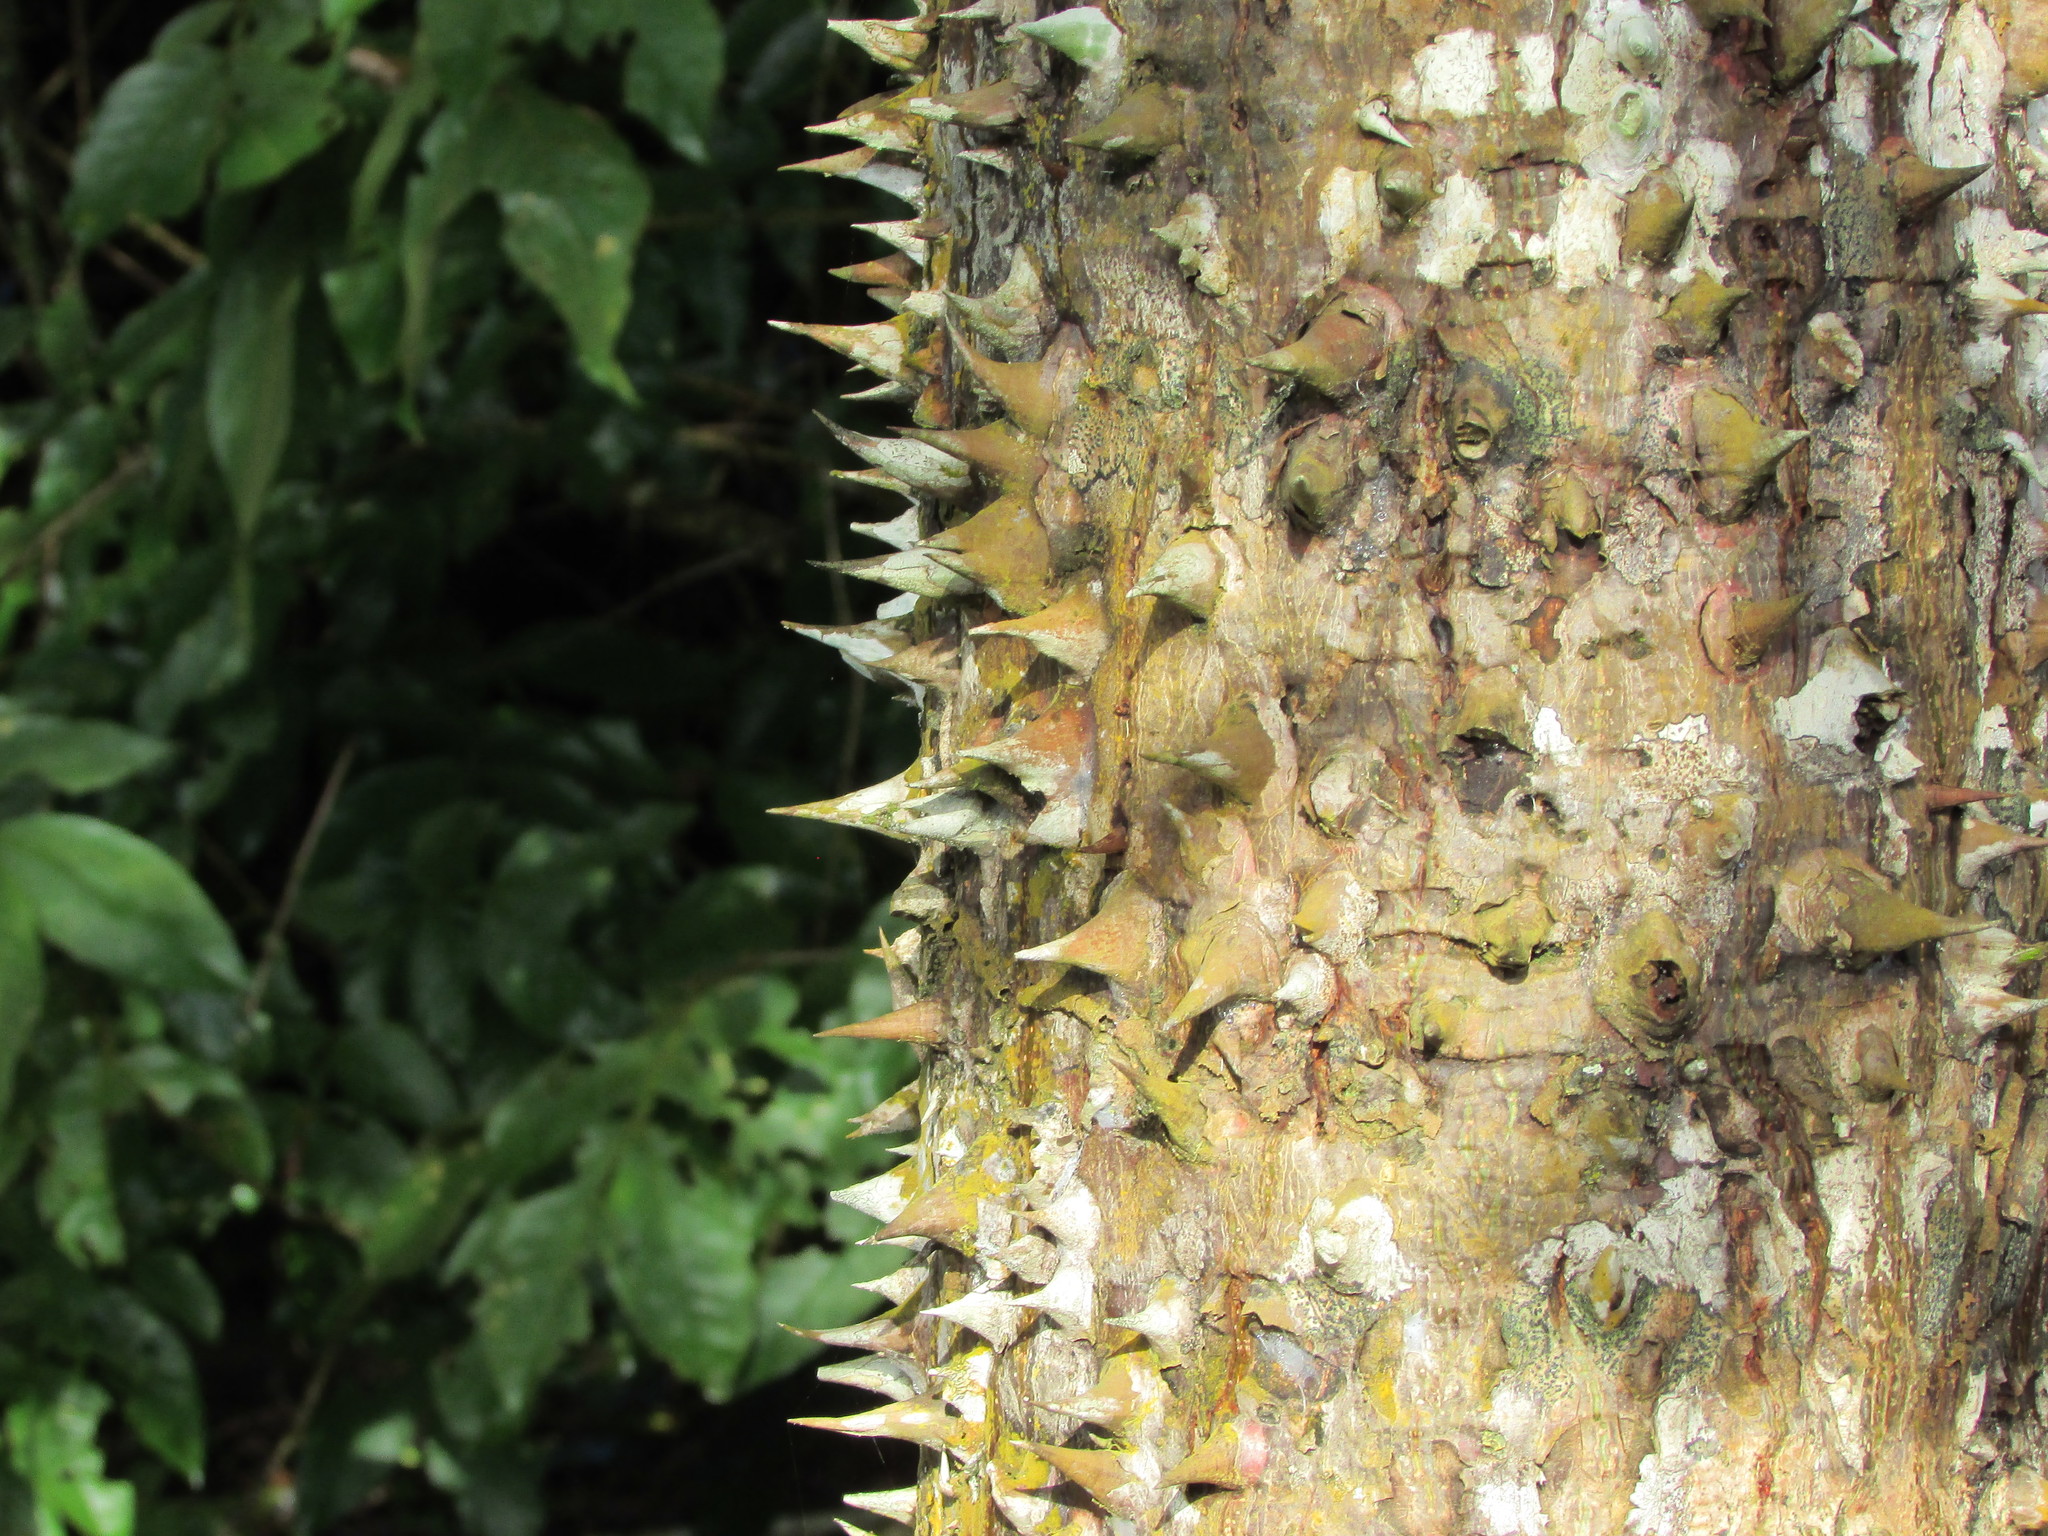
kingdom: Plantae
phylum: Tracheophyta
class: Magnoliopsida
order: Sapindales
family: Meliaceae
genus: Cedrela
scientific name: Cedrela odorata
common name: Red cedar
